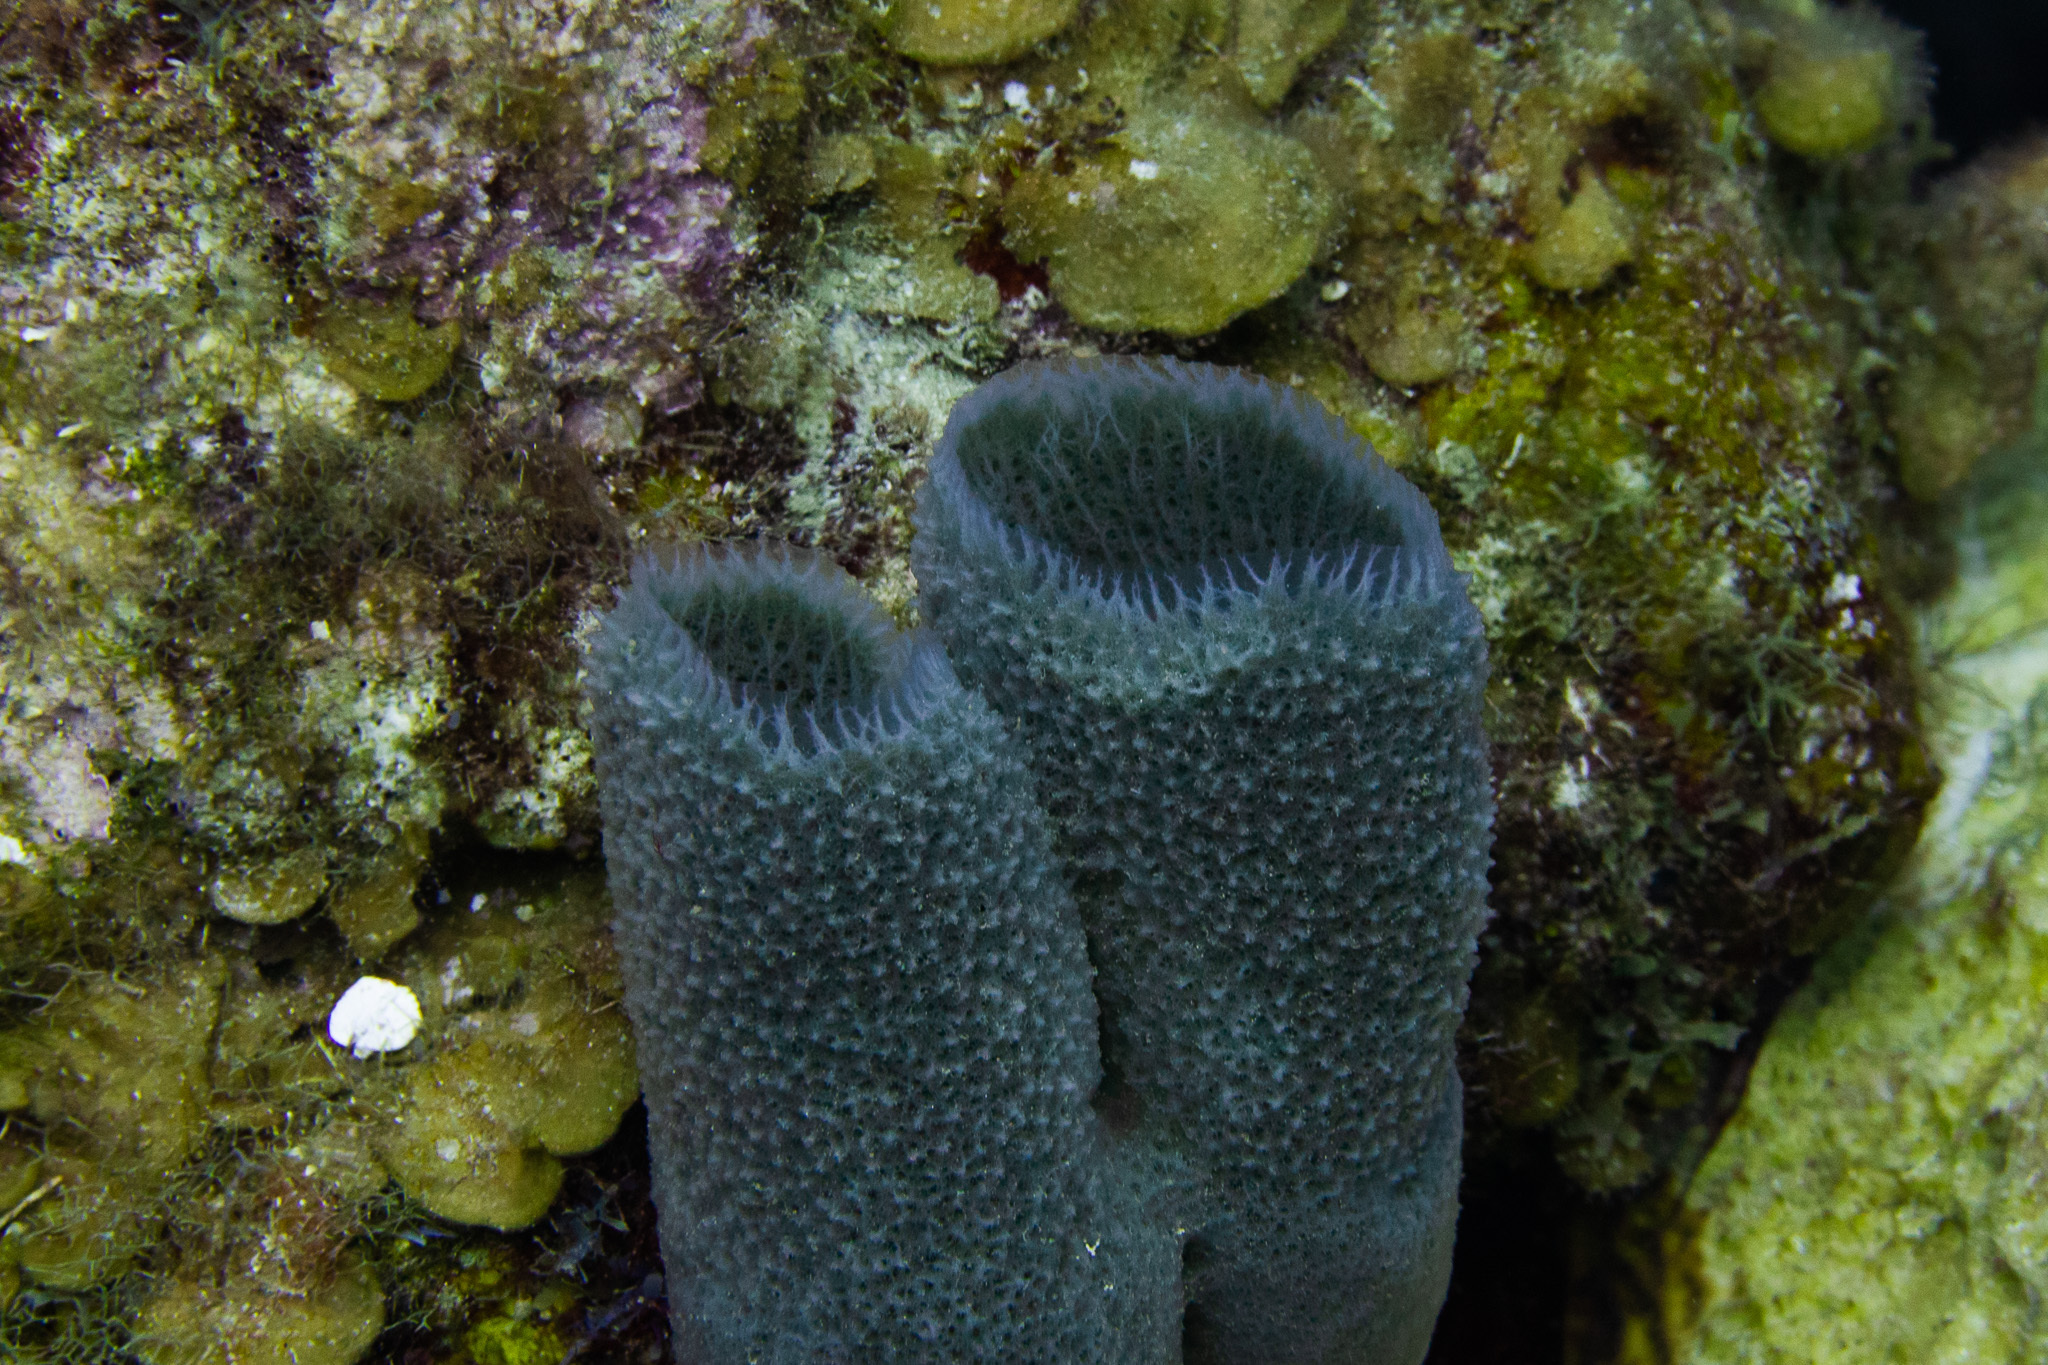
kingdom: Animalia
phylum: Porifera
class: Demospongiae
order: Haplosclerida
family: Niphatidae
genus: Niphates
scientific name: Niphates digitalis
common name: Pink vase sponge
